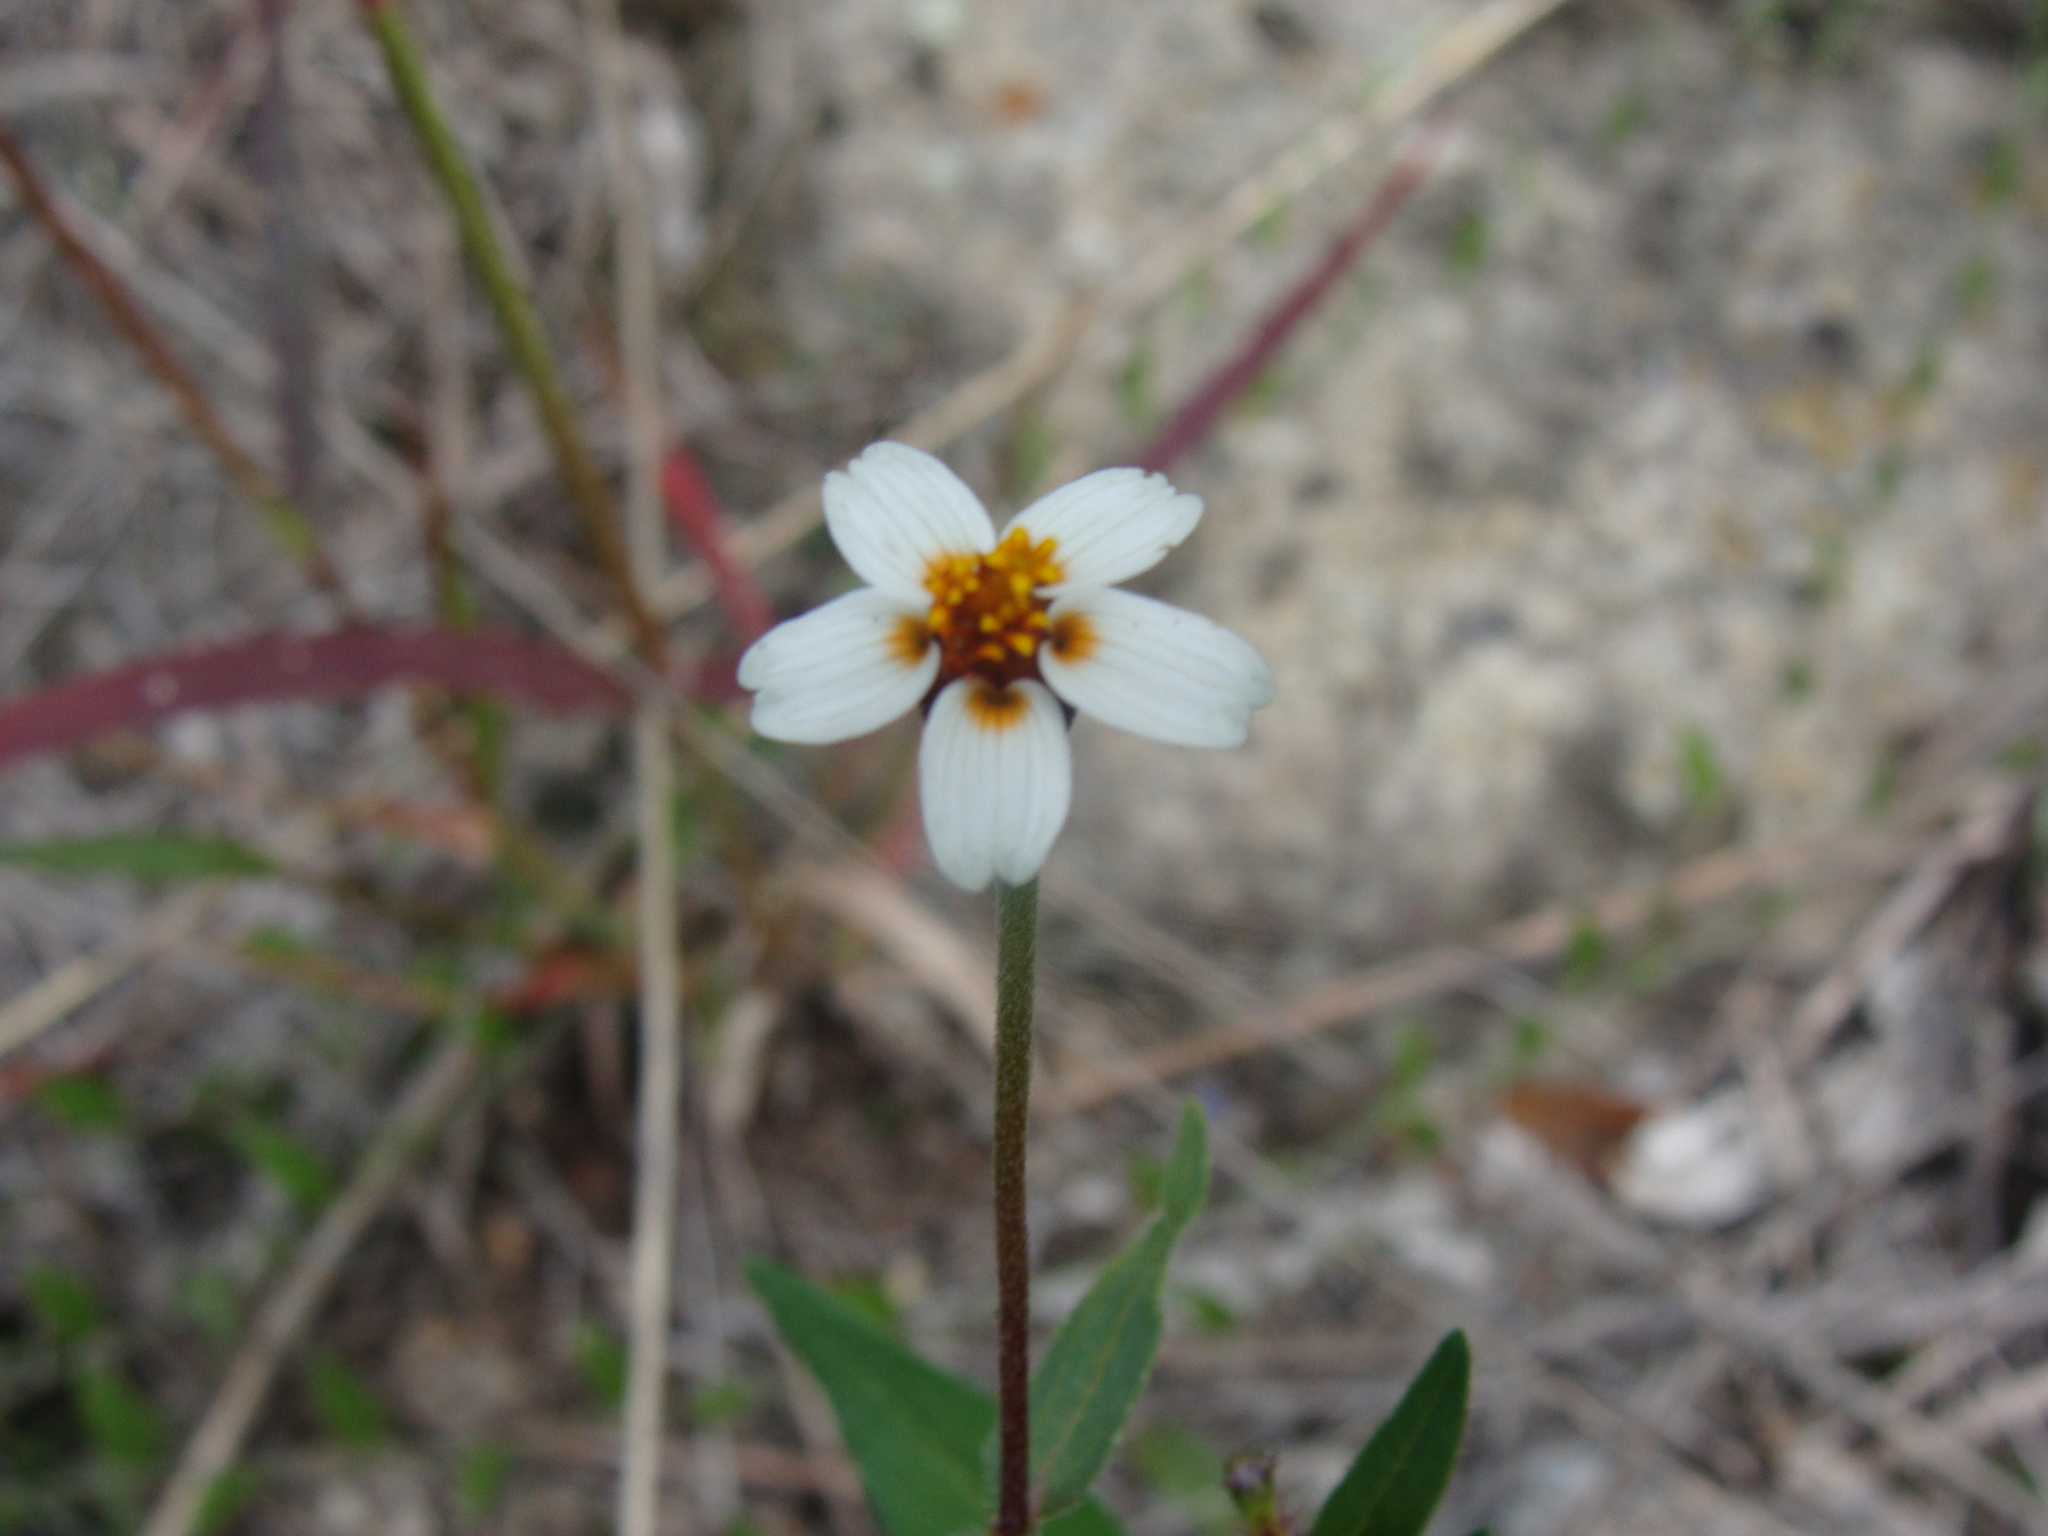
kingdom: Plantae
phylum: Tracheophyta
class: Magnoliopsida
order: Asterales
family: Asteraceae
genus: Zinnia
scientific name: Zinnia bicolor
